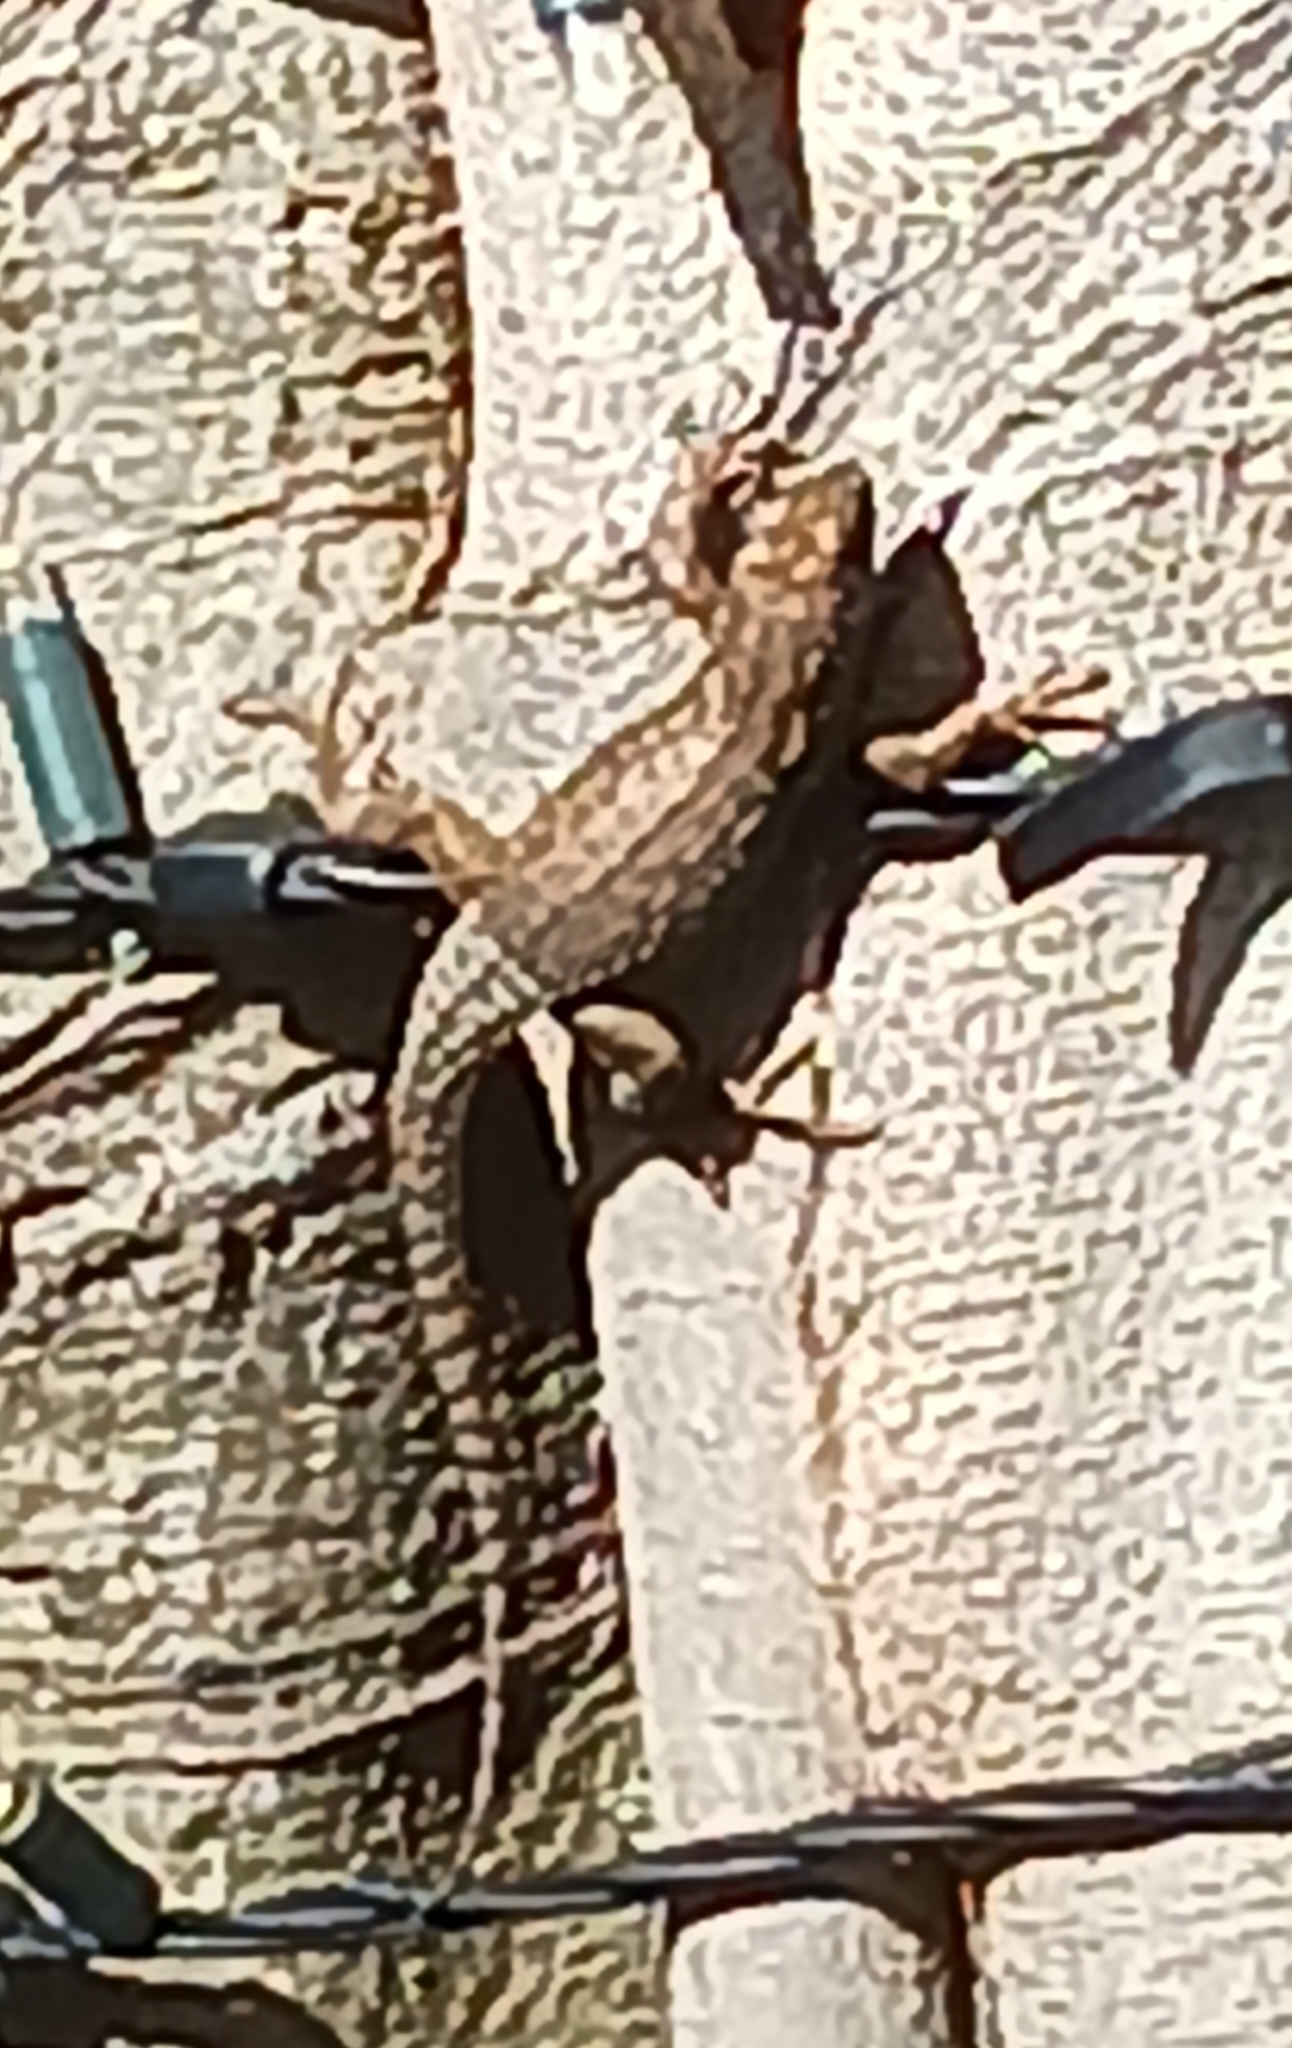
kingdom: Animalia
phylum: Chordata
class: Squamata
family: Leiocephalidae
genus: Leiocephalus
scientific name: Leiocephalus carinatus
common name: Northern curly-tailed lizard
